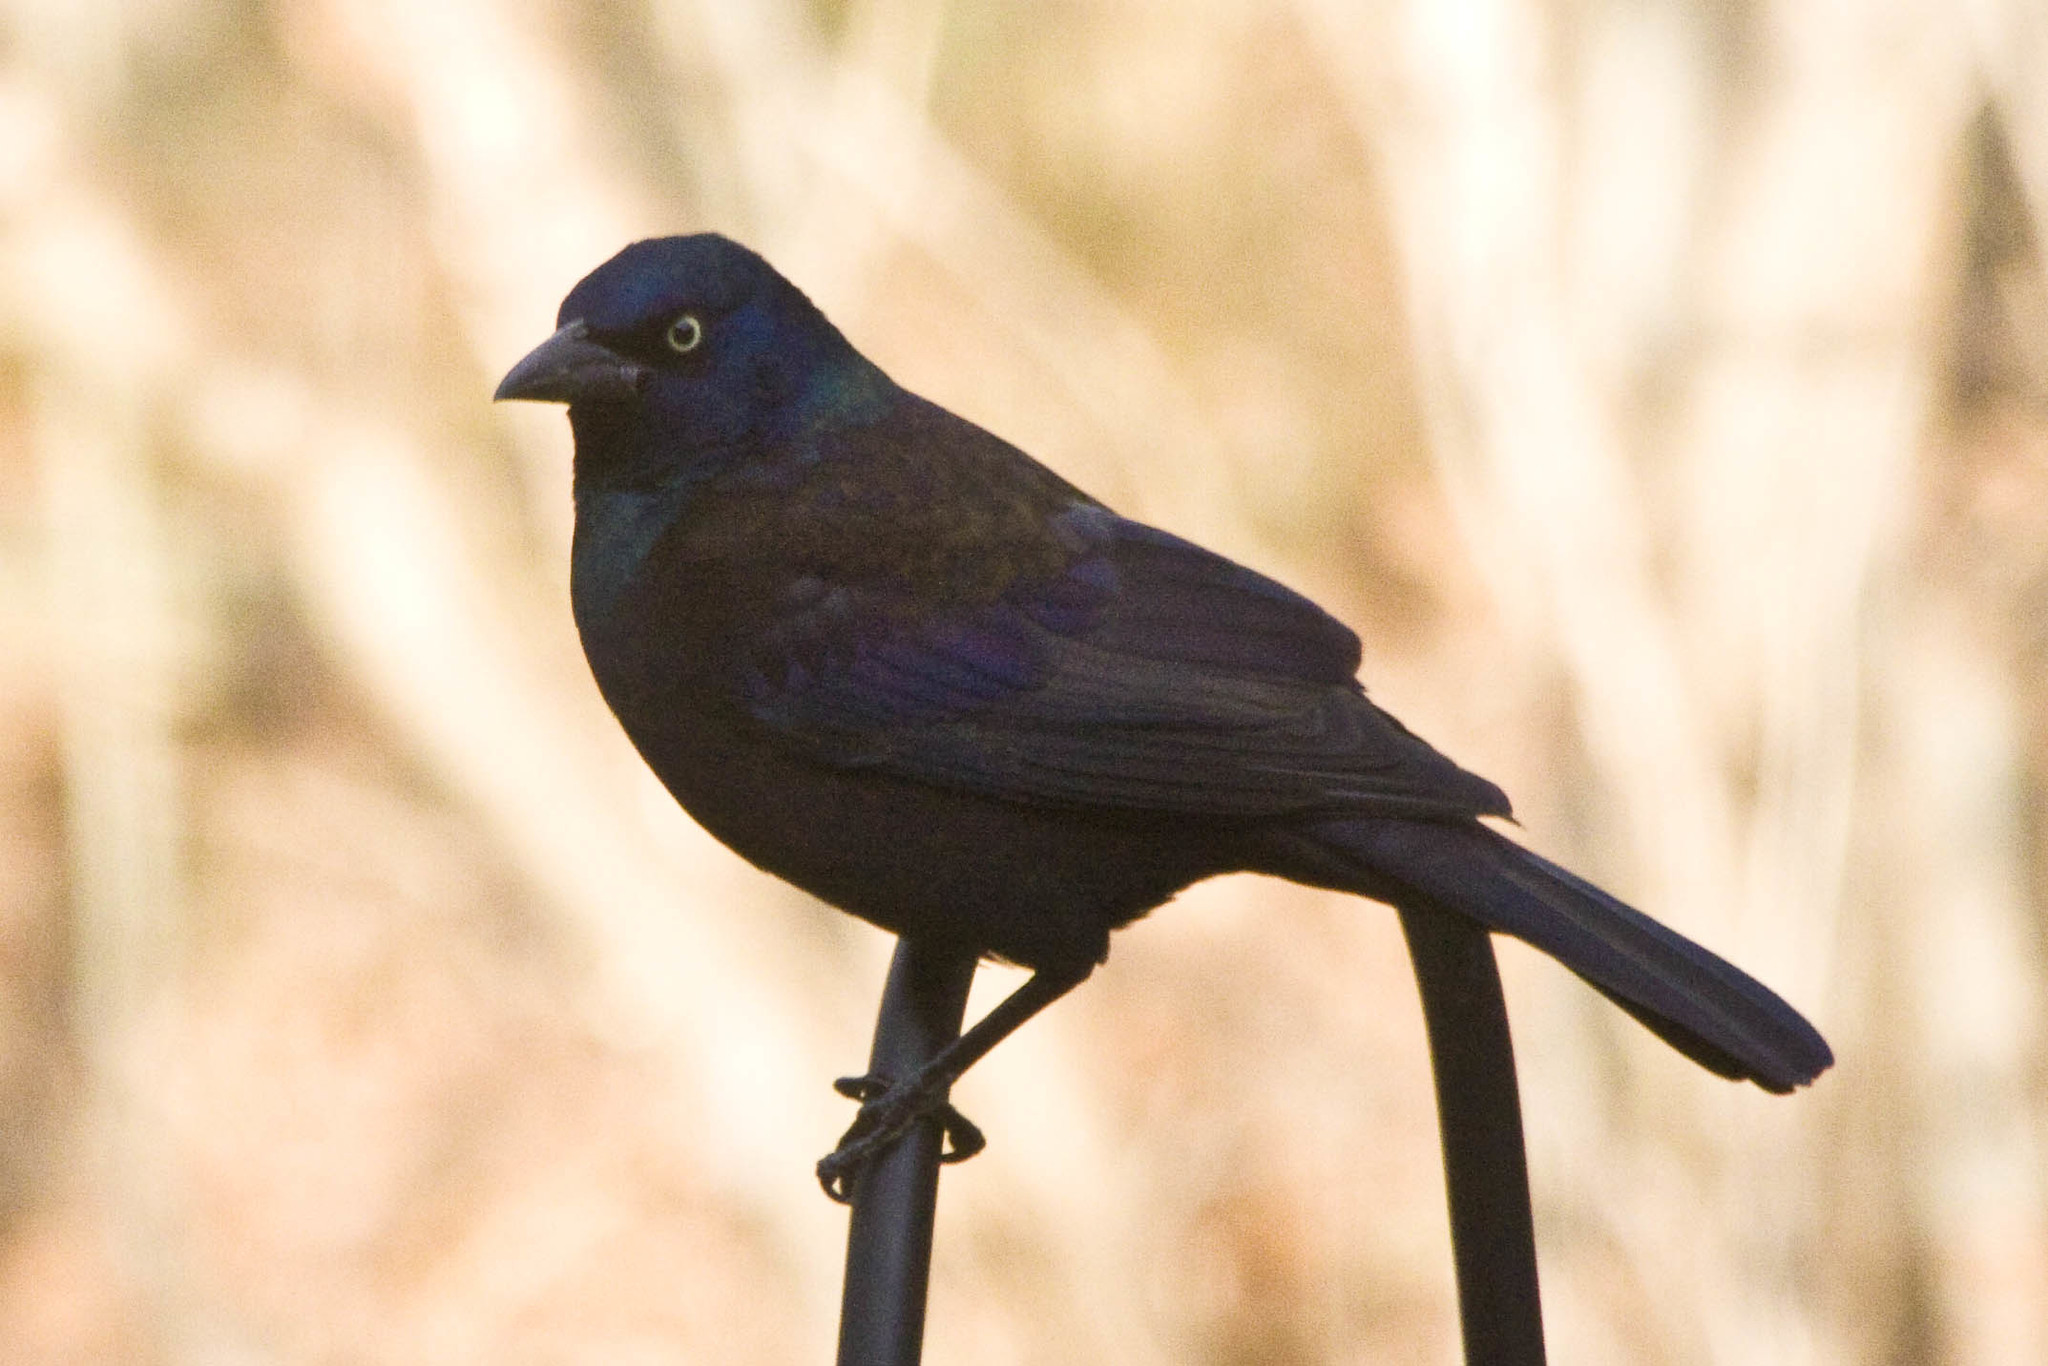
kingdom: Animalia
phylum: Chordata
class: Aves
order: Passeriformes
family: Icteridae
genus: Quiscalus
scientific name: Quiscalus quiscula
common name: Common grackle
